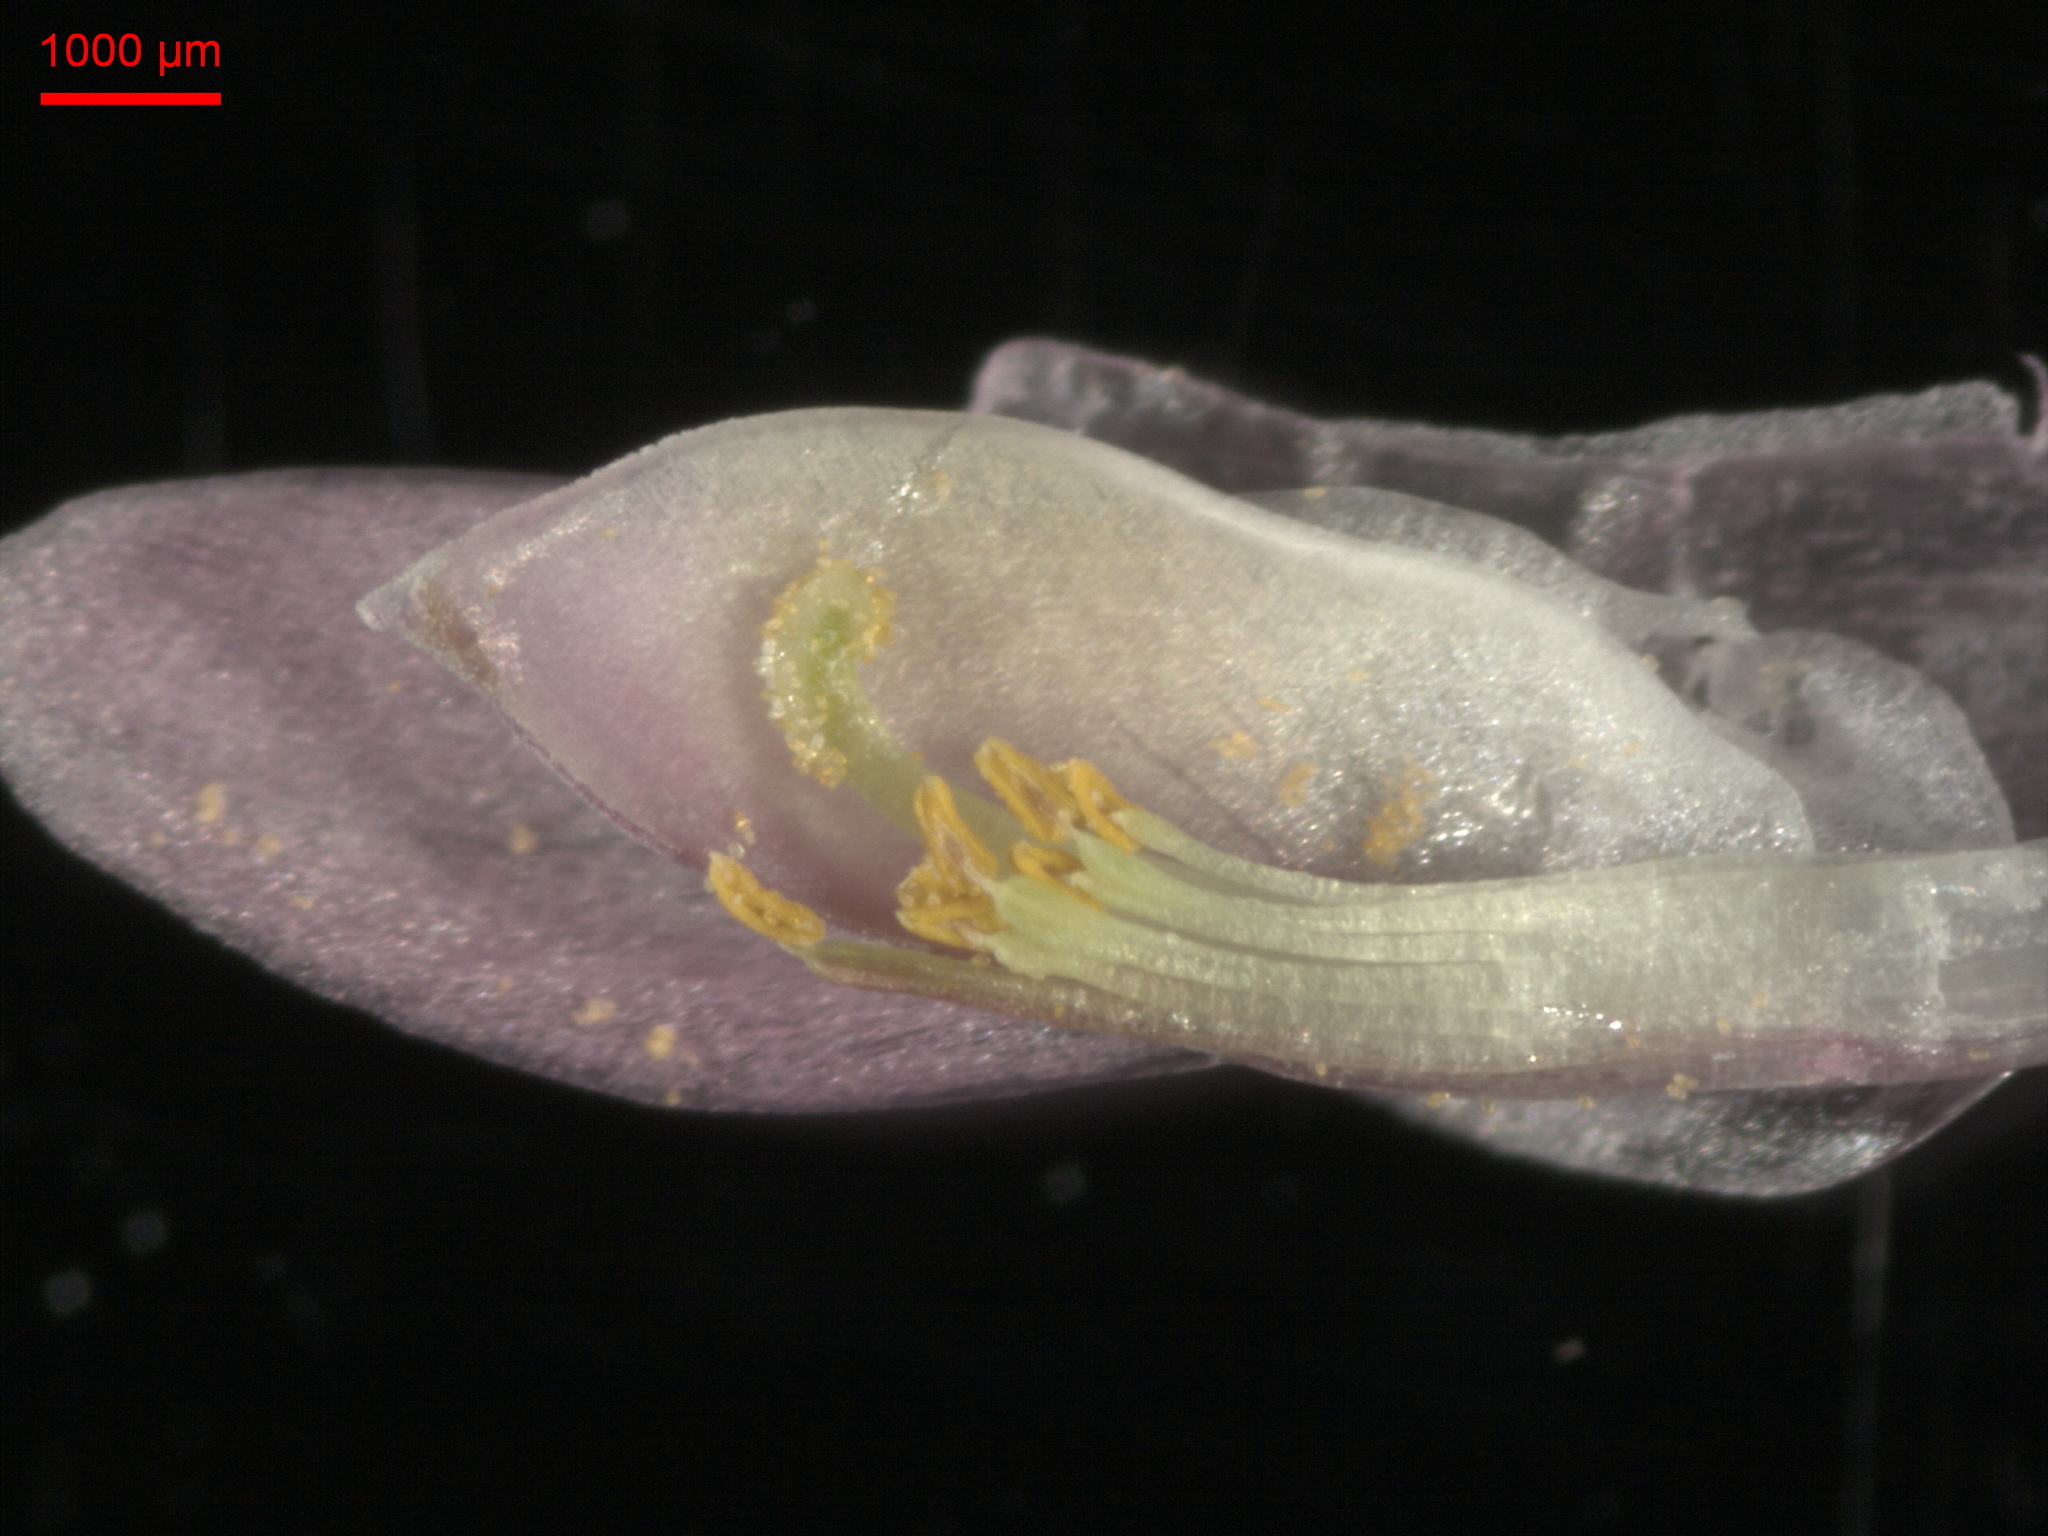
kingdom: Plantae
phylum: Tracheophyta
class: Magnoliopsida
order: Fabales
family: Fabaceae
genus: Trifolium
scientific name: Trifolium pratense
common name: Red clover
